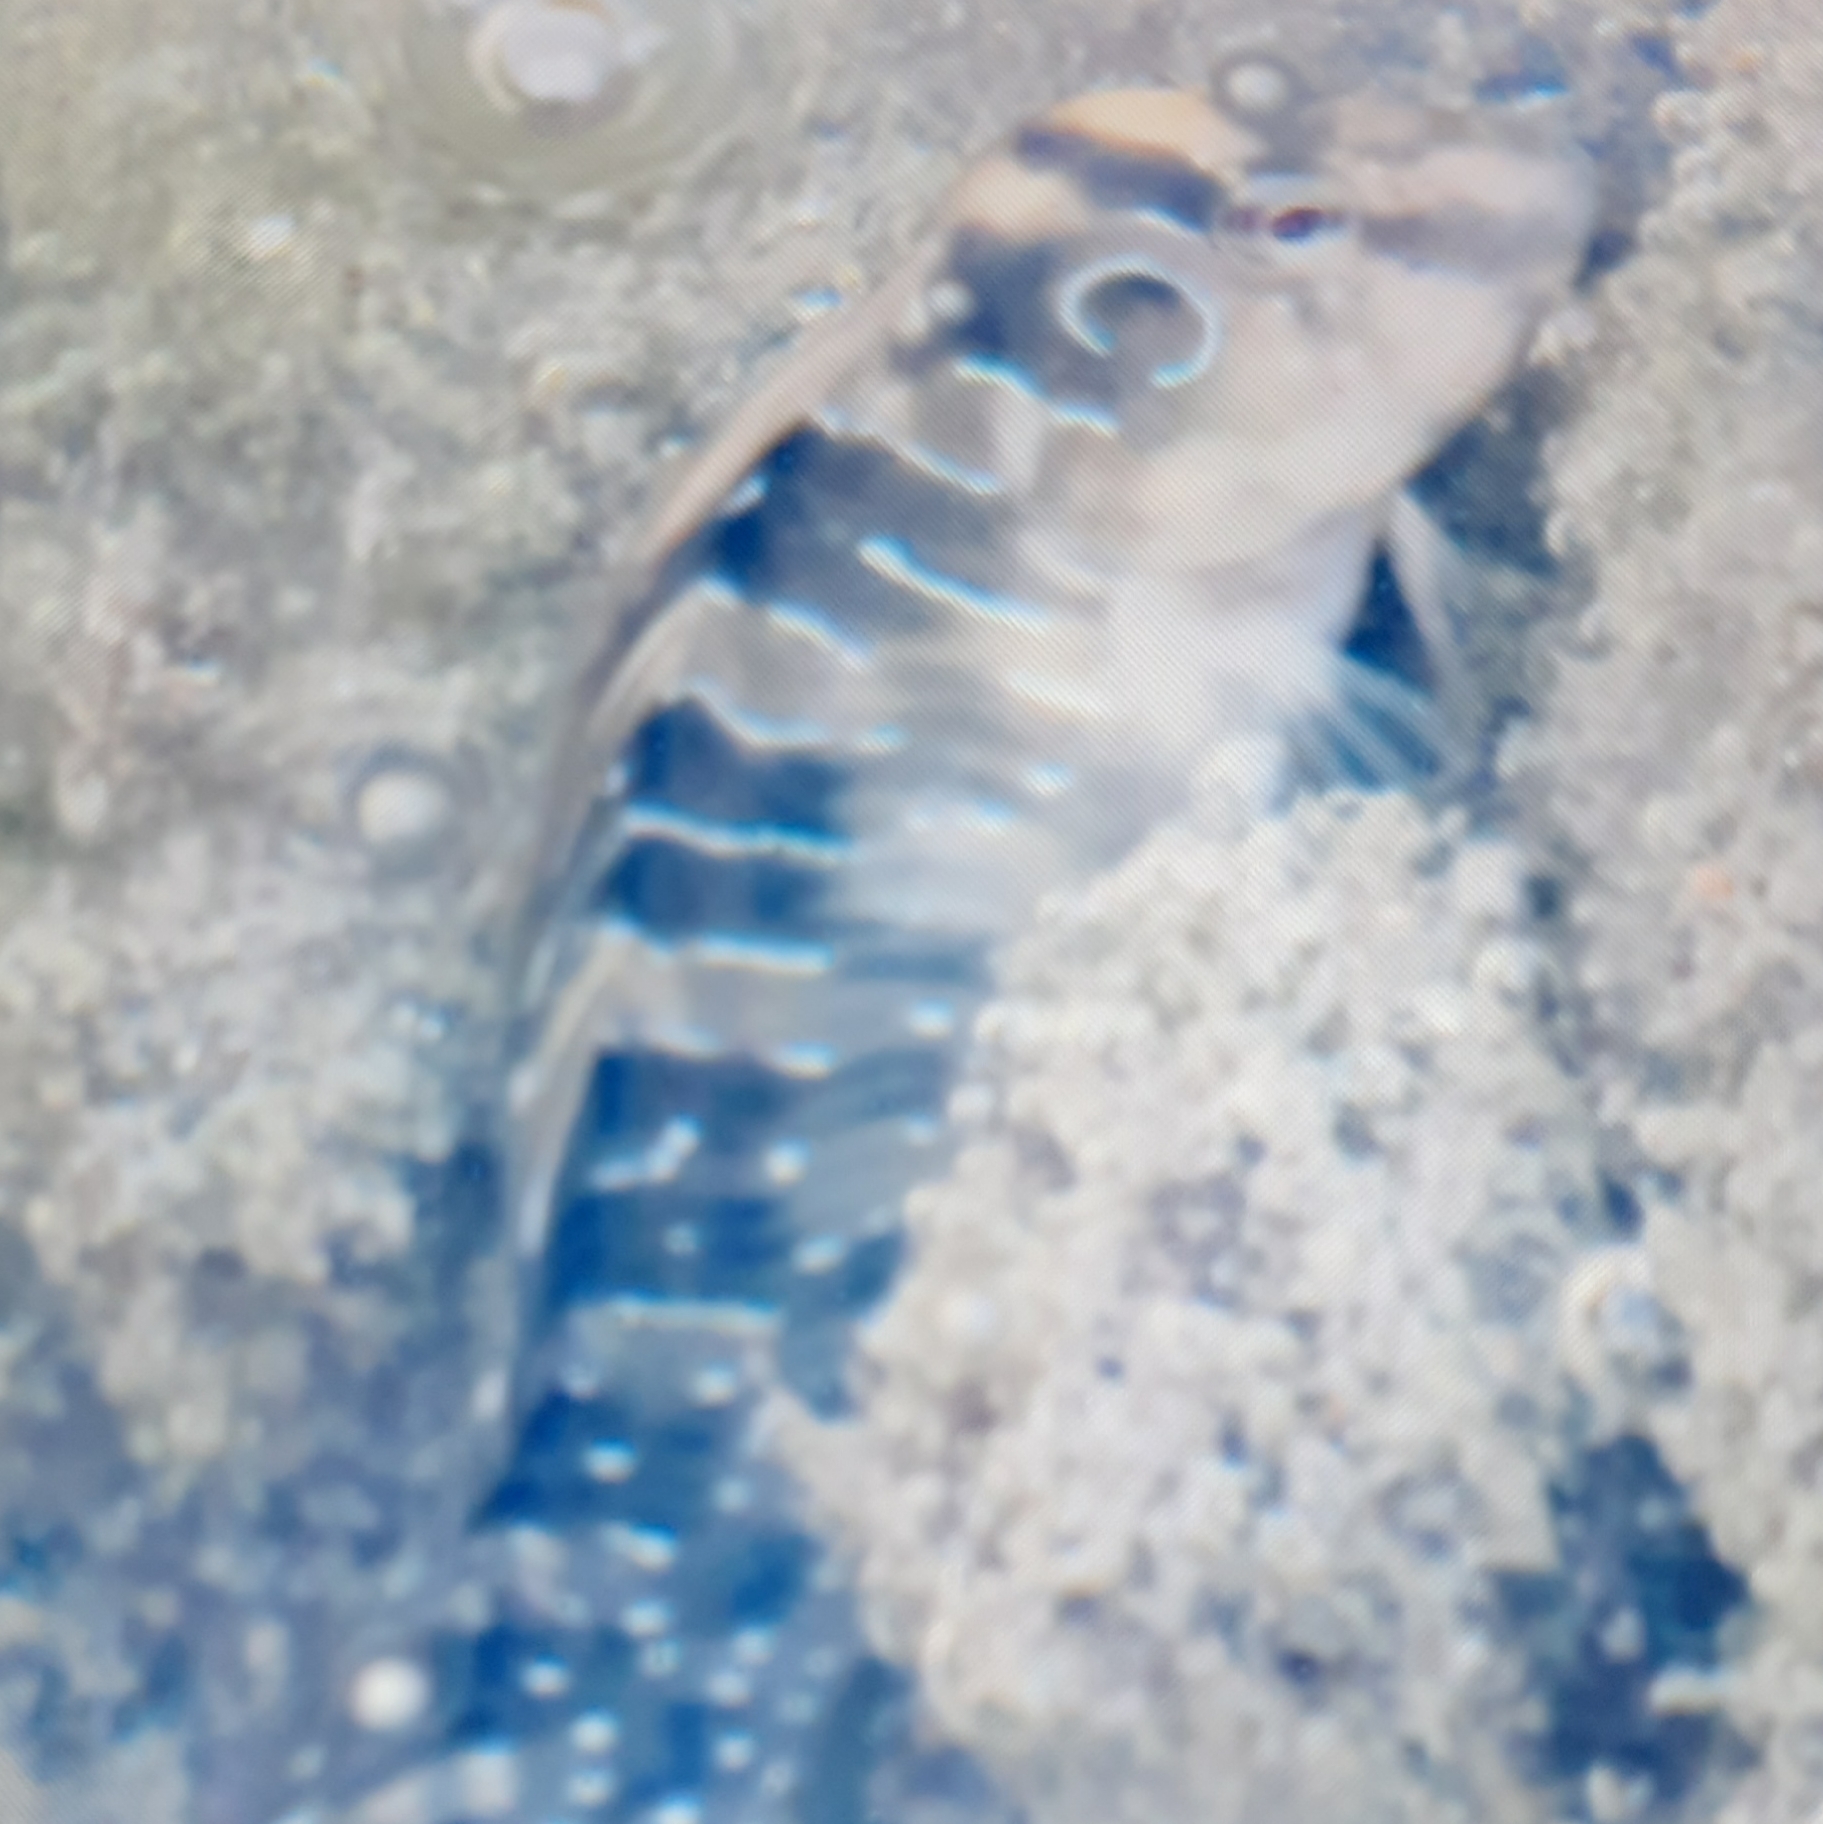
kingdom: Animalia
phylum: Chordata
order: Perciformes
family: Blenniidae
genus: Salaria
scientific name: Salaria pavo
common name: Peacock blenny
